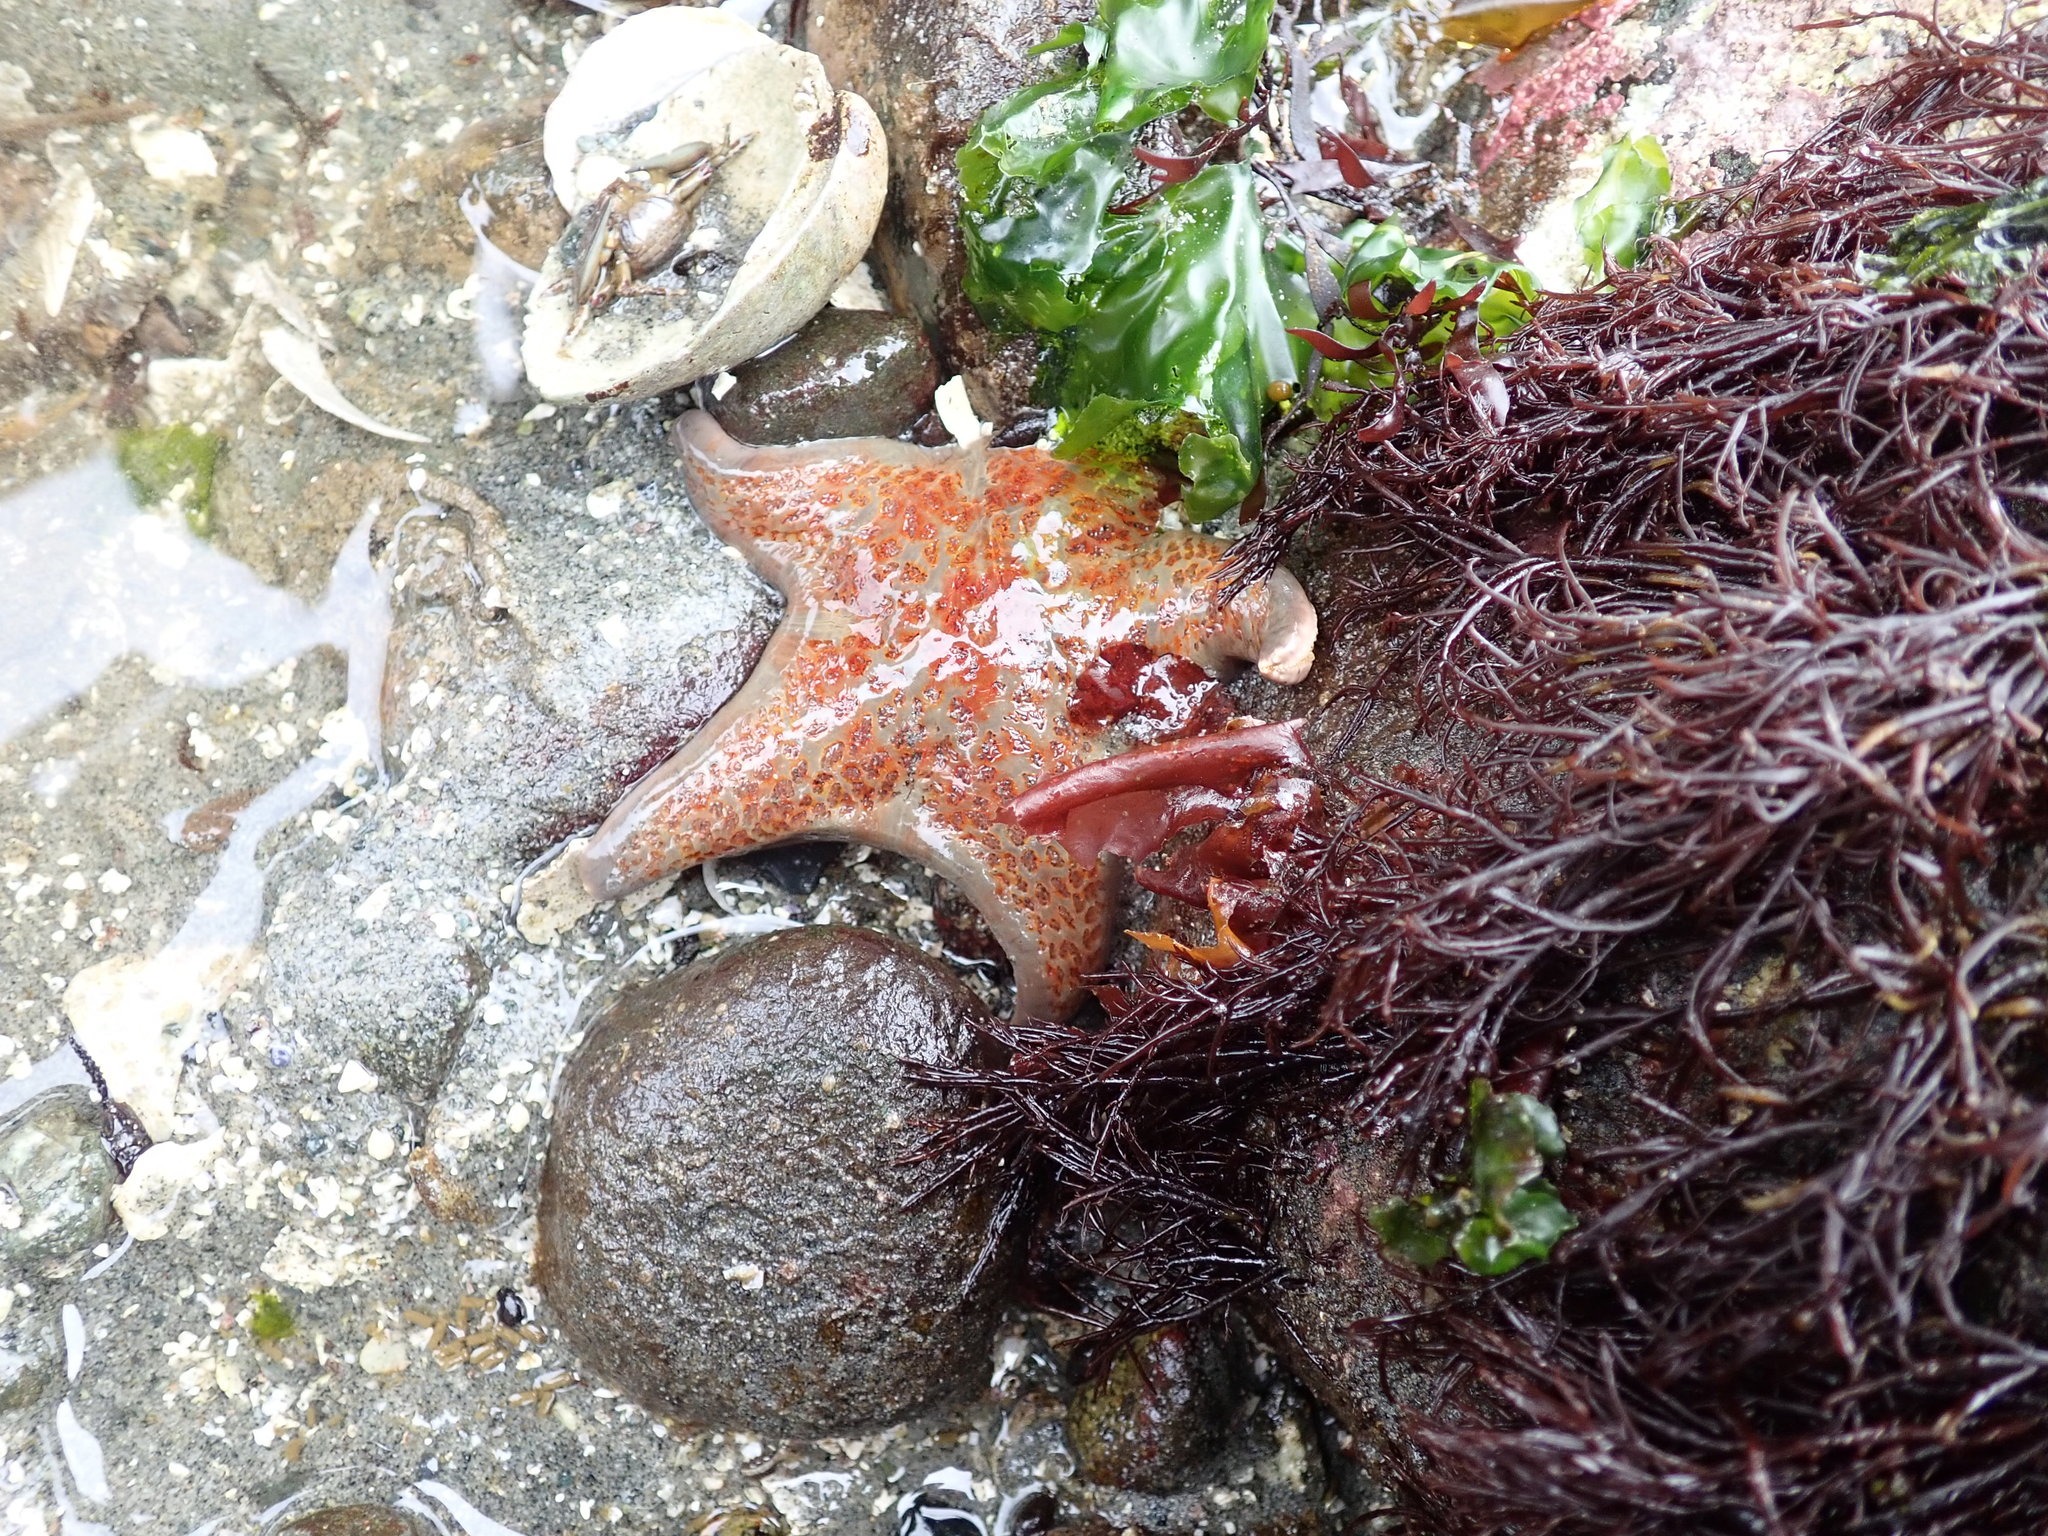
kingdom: Animalia
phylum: Echinodermata
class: Asteroidea
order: Valvatida
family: Asteropseidae
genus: Dermasterias
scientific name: Dermasterias imbricata
